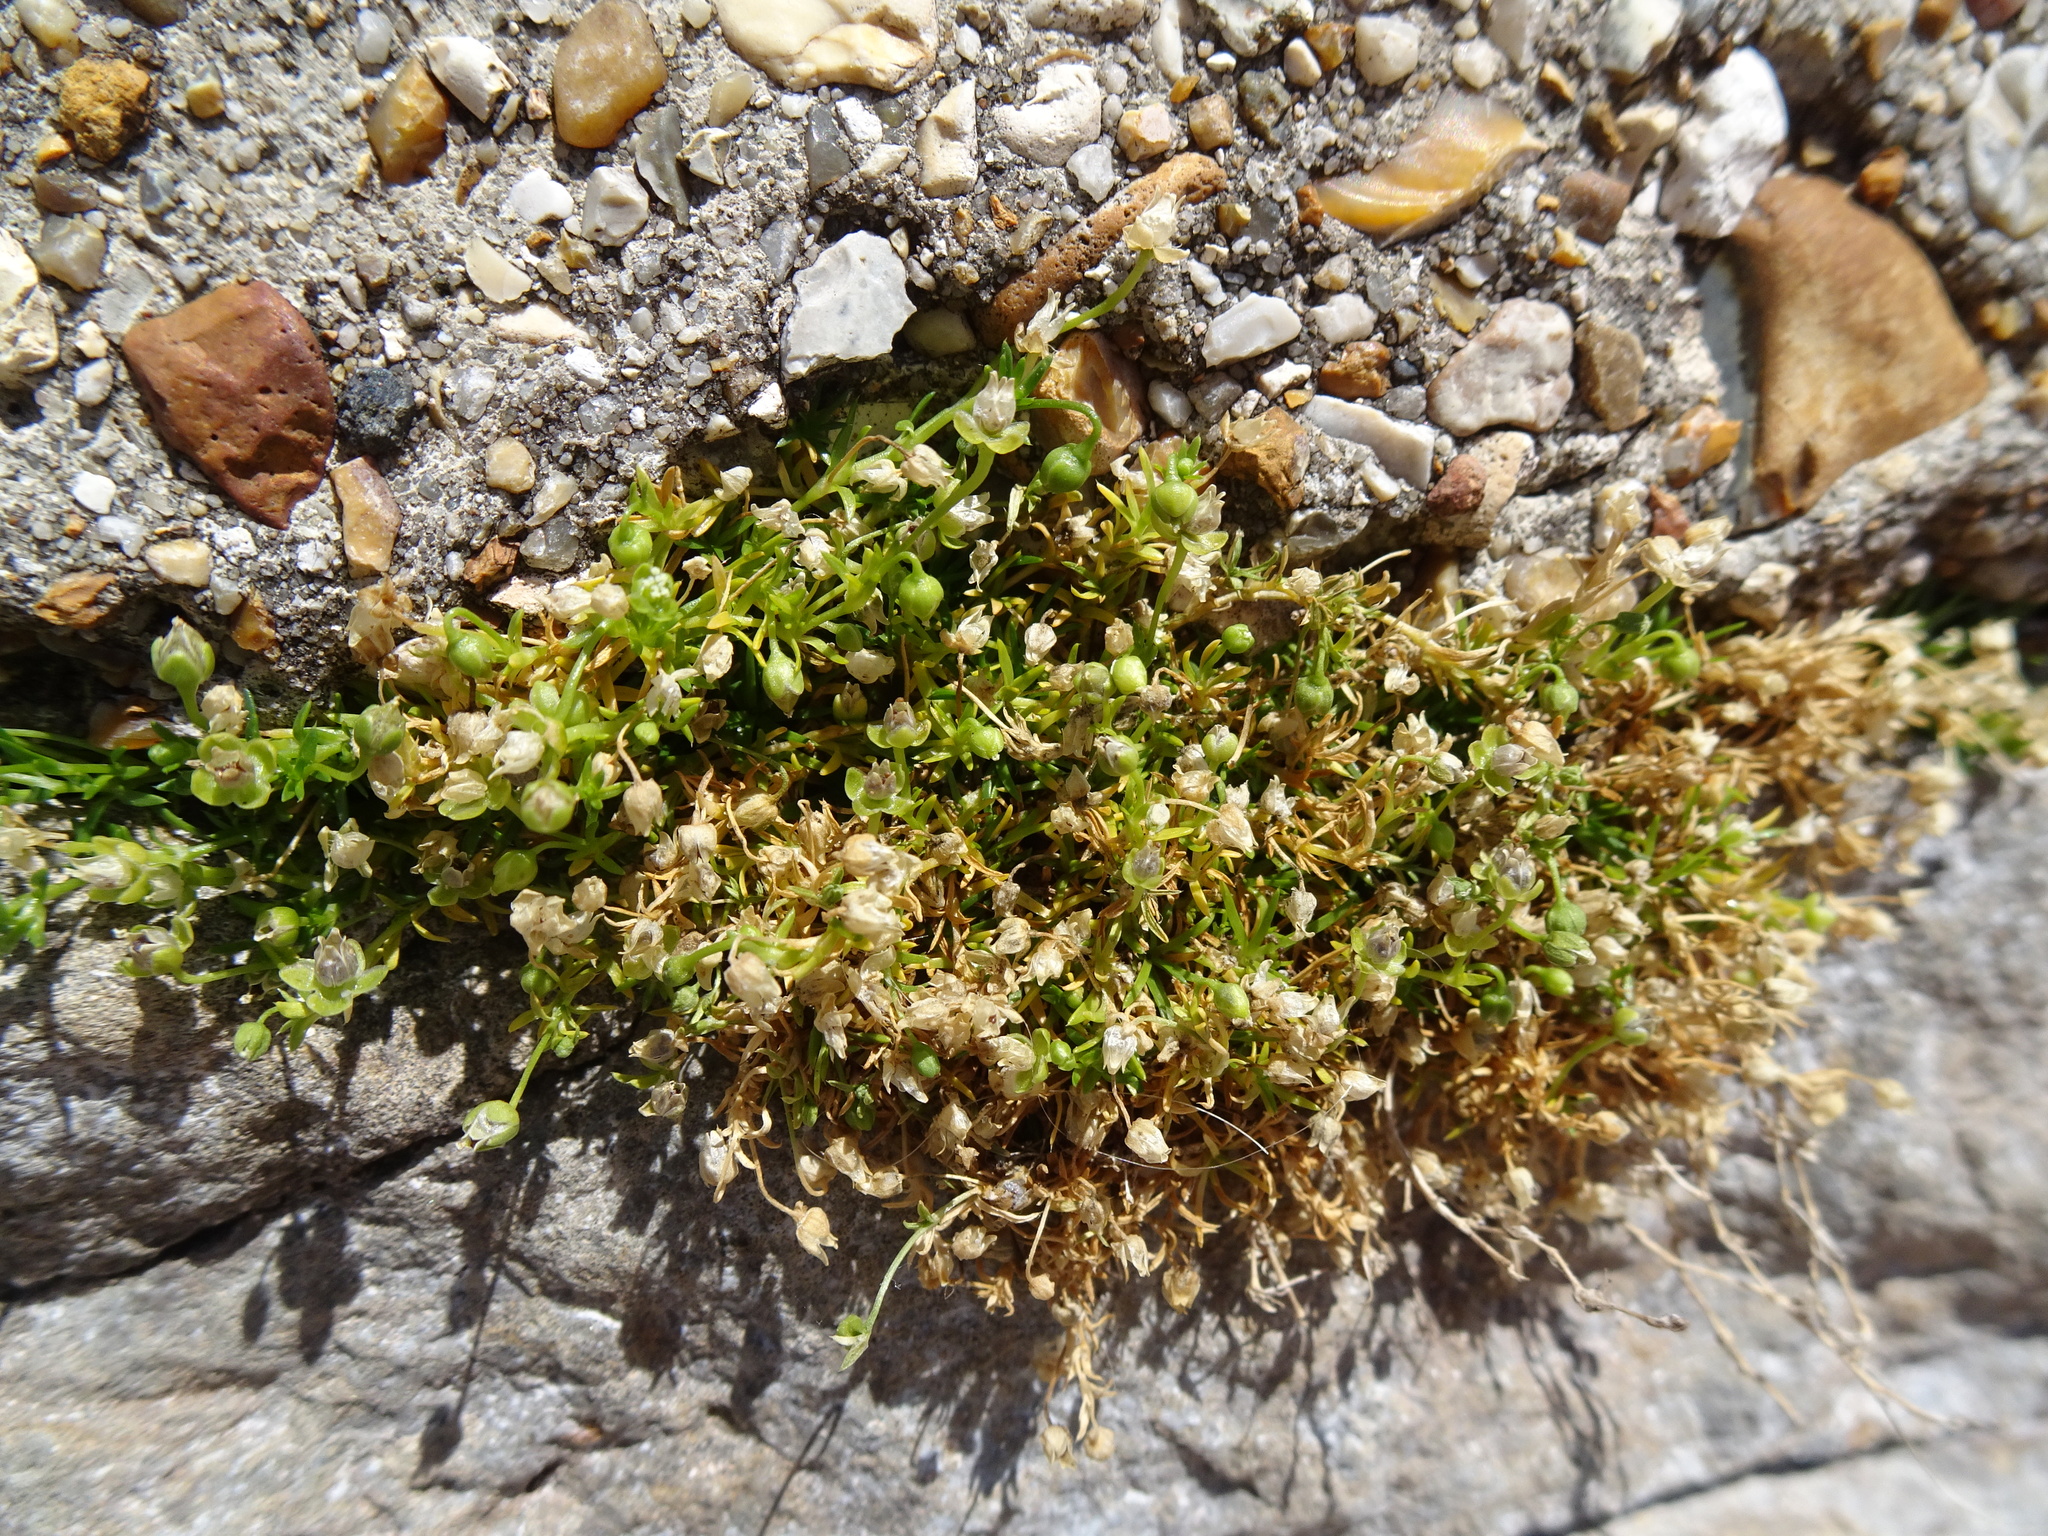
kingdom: Plantae
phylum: Tracheophyta
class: Magnoliopsida
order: Caryophyllales
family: Caryophyllaceae
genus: Sagina
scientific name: Sagina procumbens
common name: Procumbent pearlwort
